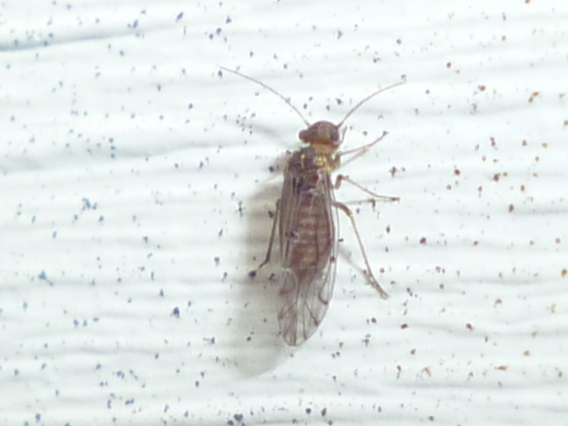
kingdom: Animalia
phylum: Arthropoda
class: Insecta
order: Psocodea
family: Lachesillidae
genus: Lachesilla
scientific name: Lachesilla nubilis
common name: Bark lice
